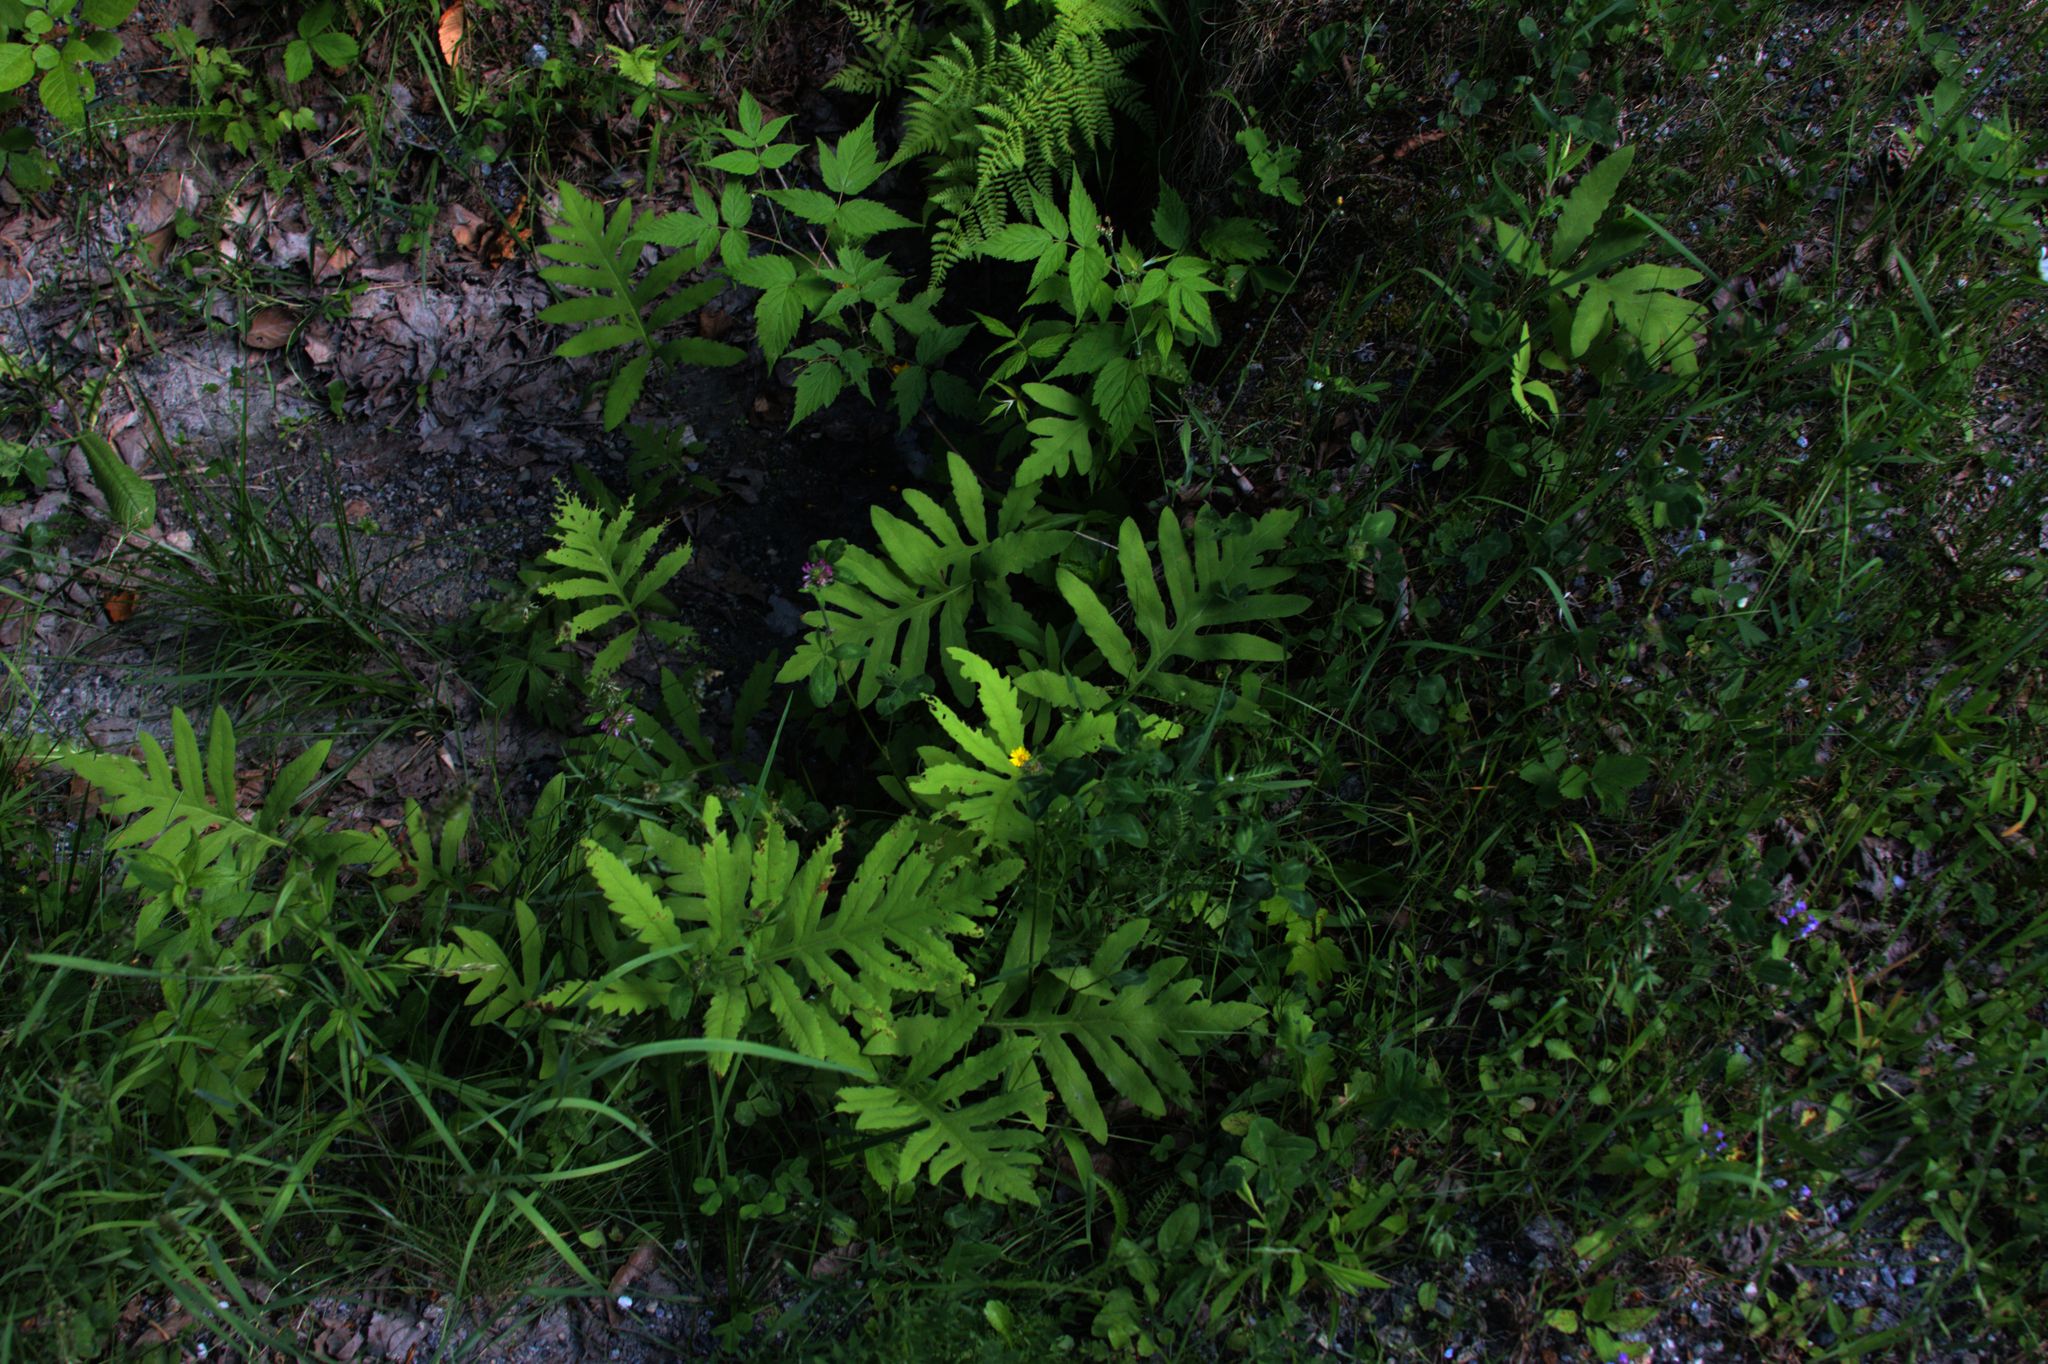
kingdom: Plantae
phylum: Tracheophyta
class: Polypodiopsida
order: Polypodiales
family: Onocleaceae
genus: Onoclea
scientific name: Onoclea sensibilis
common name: Sensitive fern
